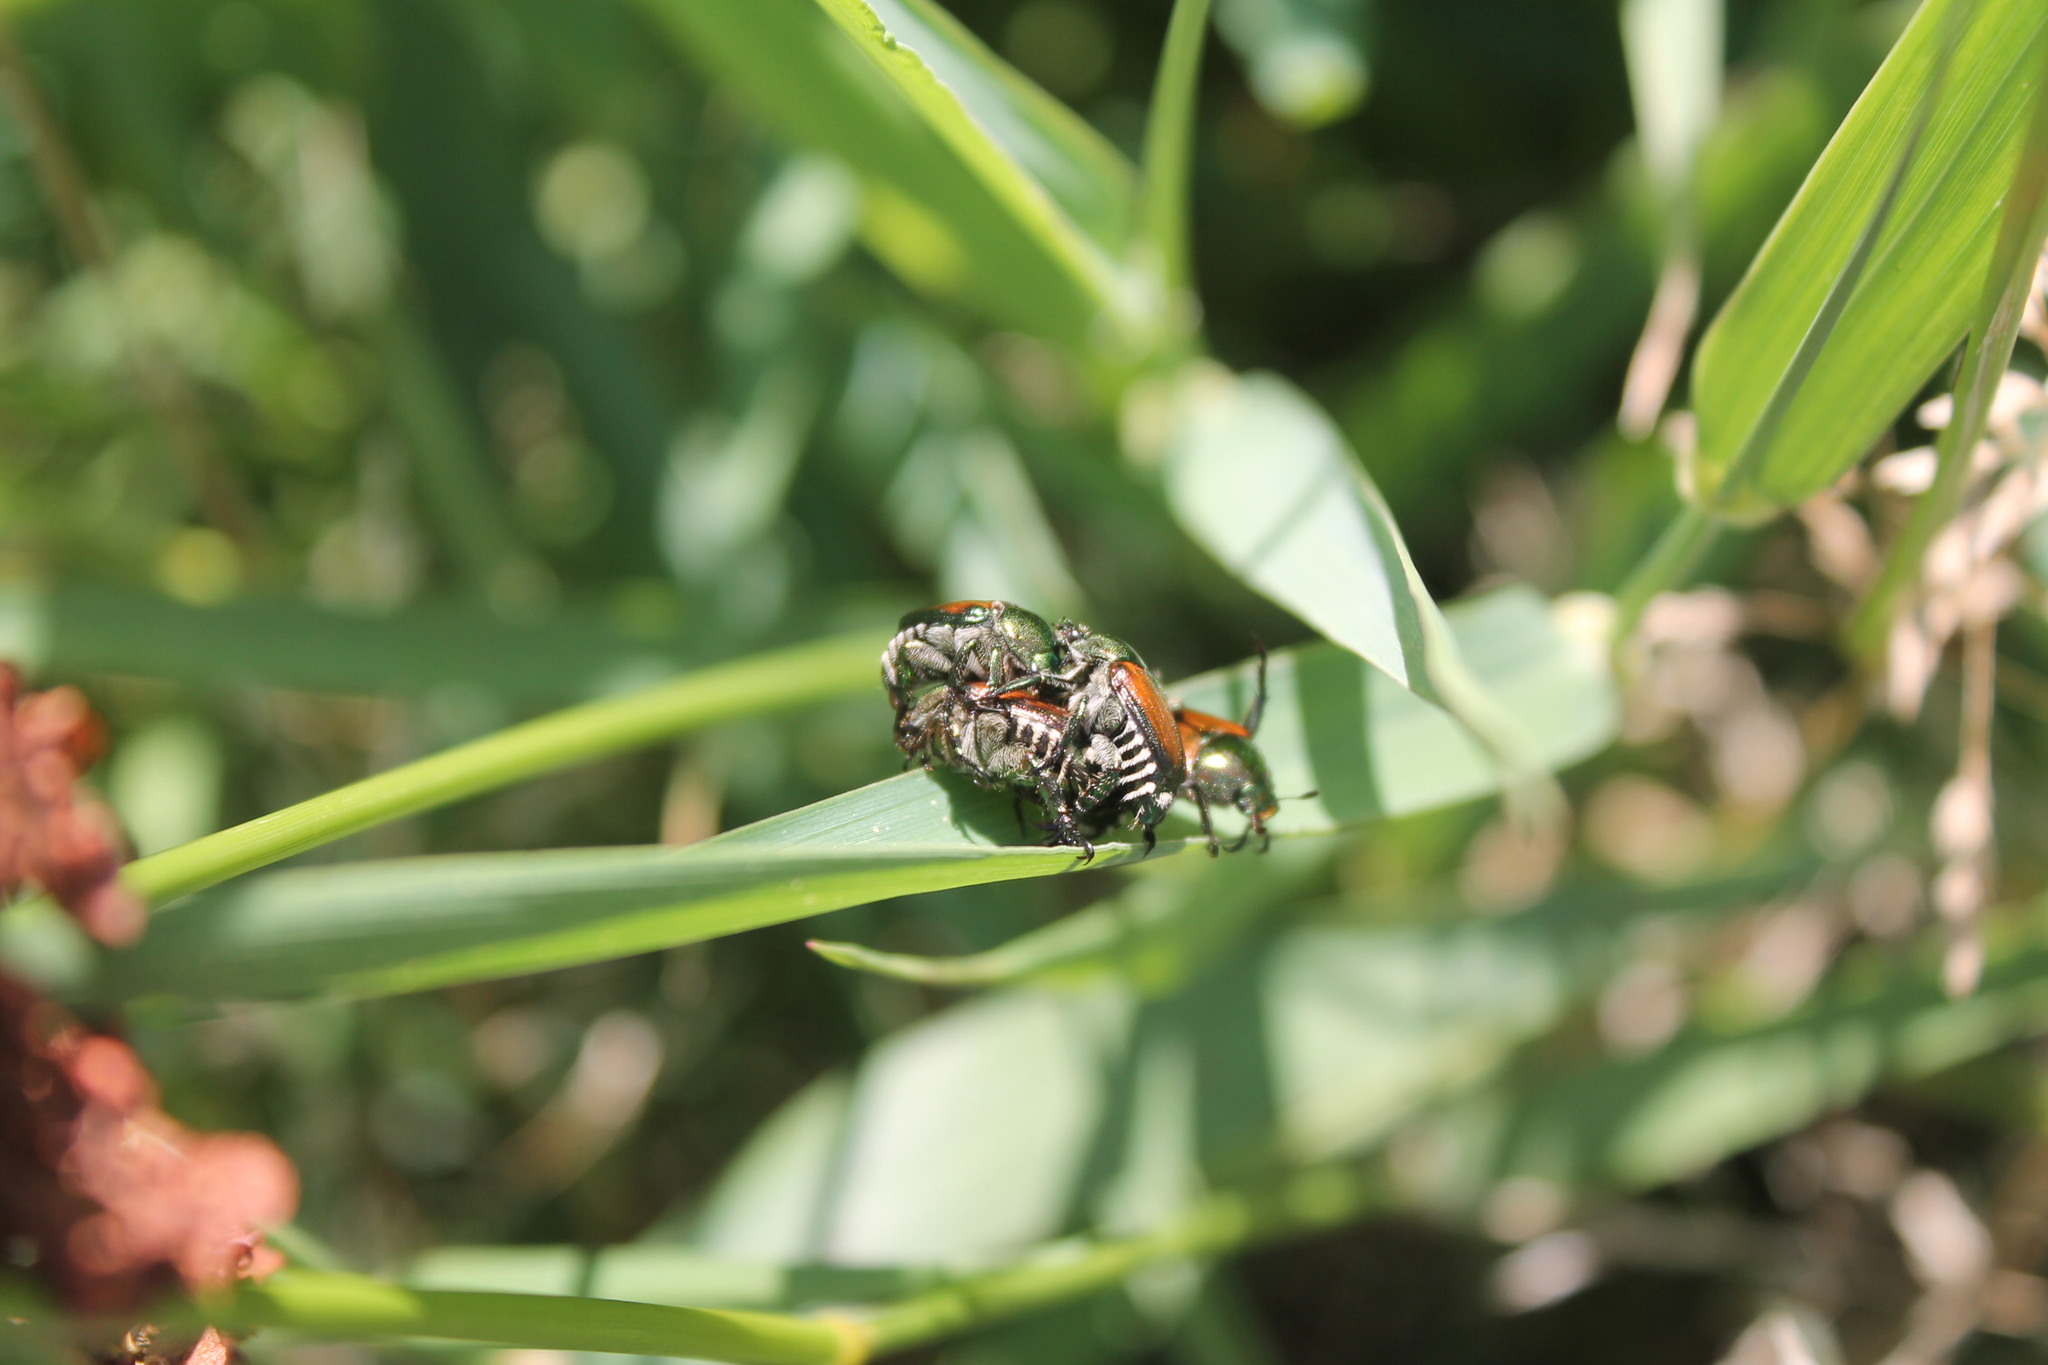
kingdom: Animalia
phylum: Arthropoda
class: Insecta
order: Coleoptera
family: Scarabaeidae
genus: Popillia
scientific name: Popillia japonica
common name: Japanese beetle
